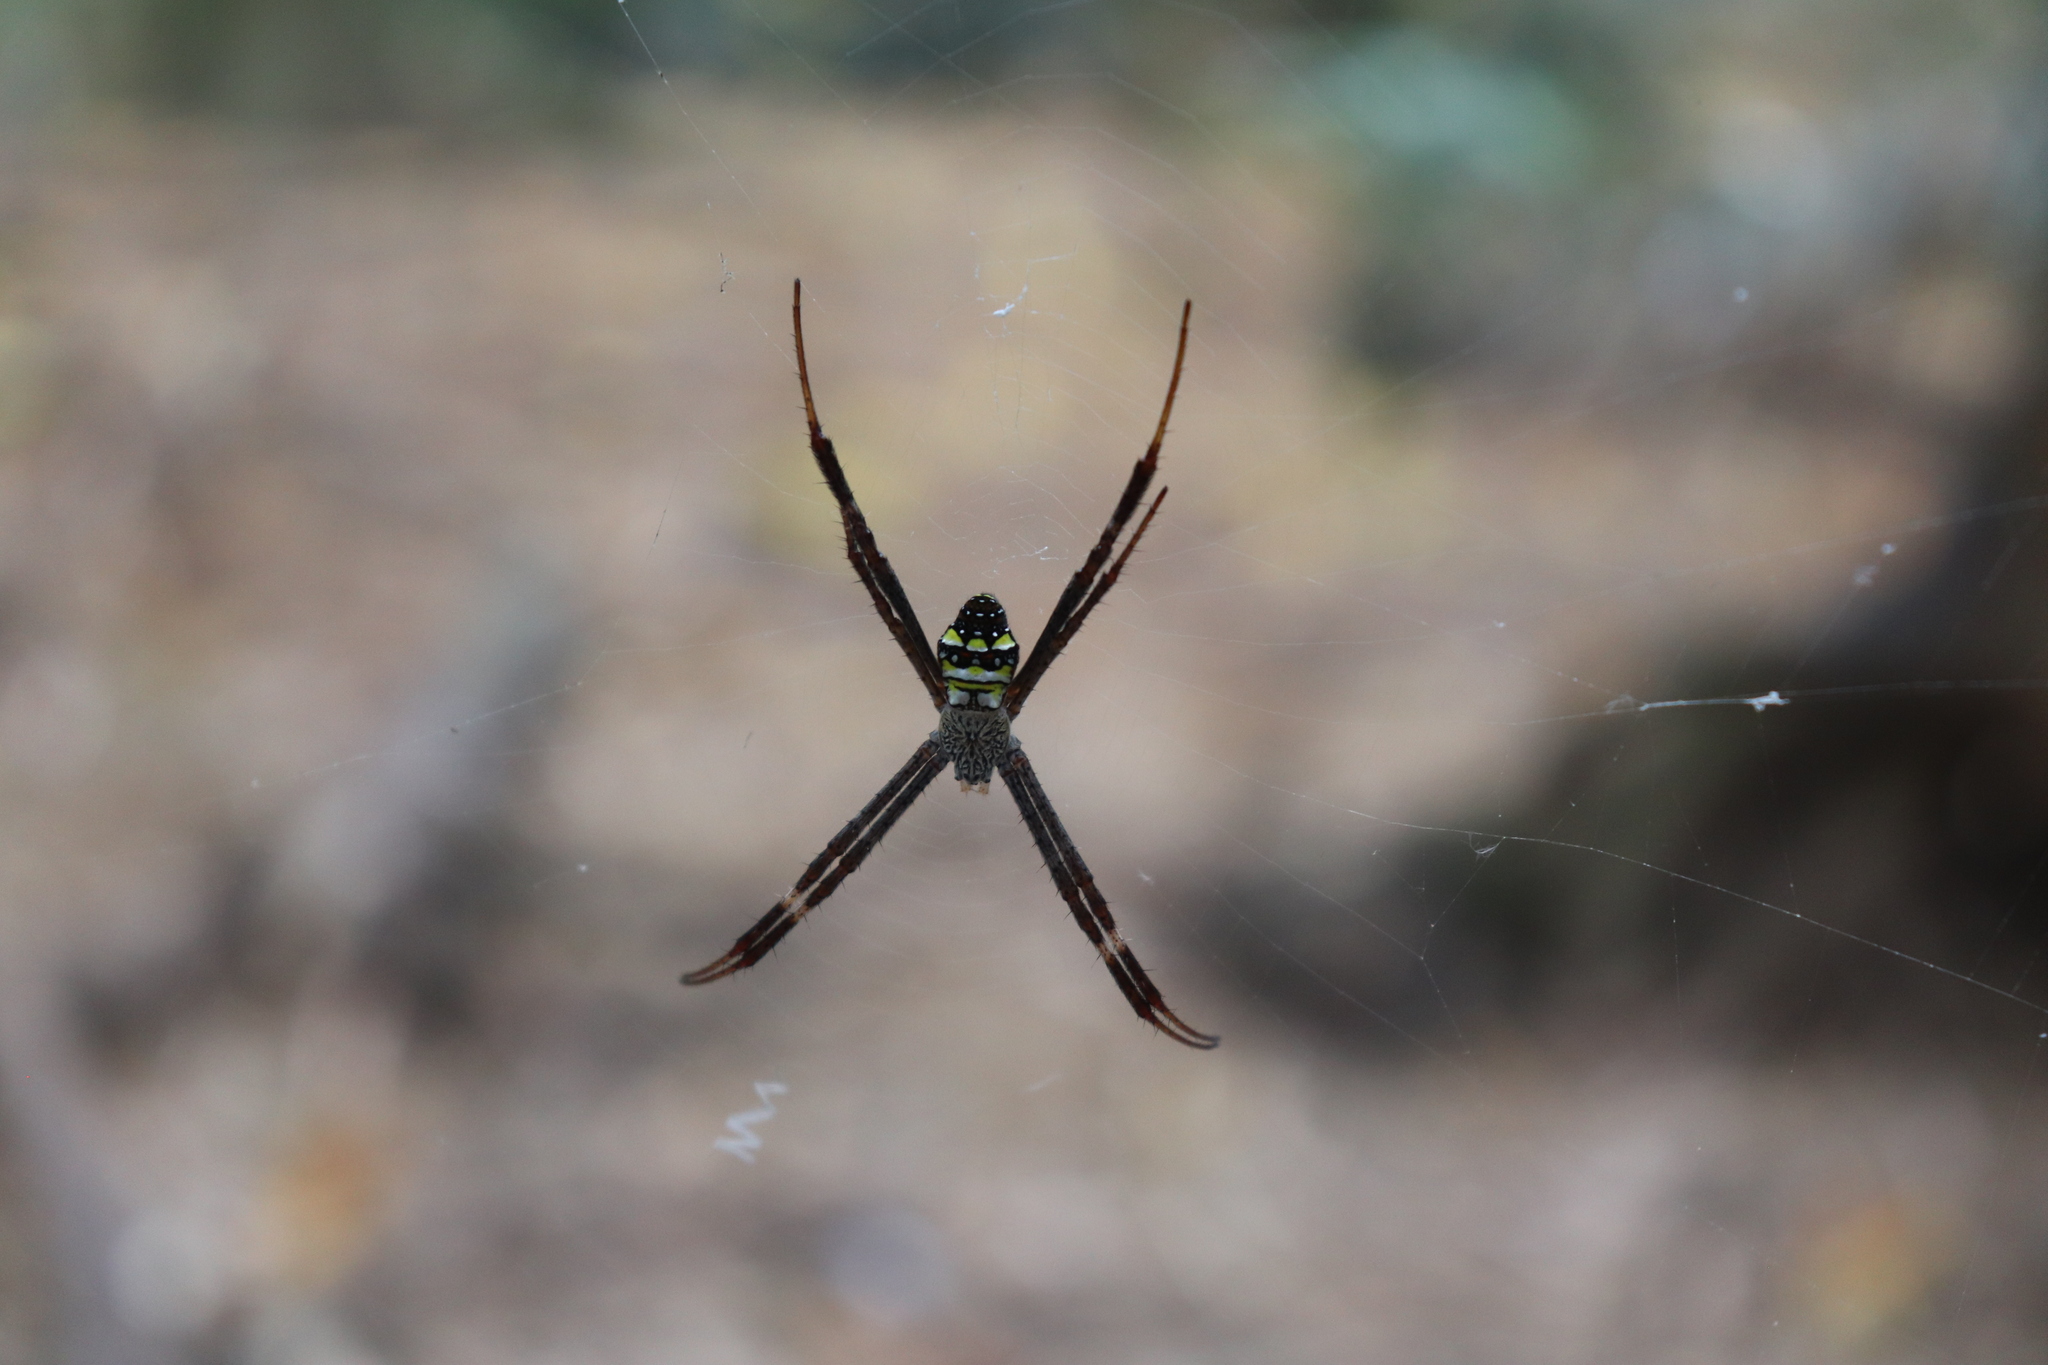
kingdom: Animalia
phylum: Arthropoda
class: Arachnida
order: Araneae
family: Araneidae
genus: Argiope
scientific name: Argiope intricata
